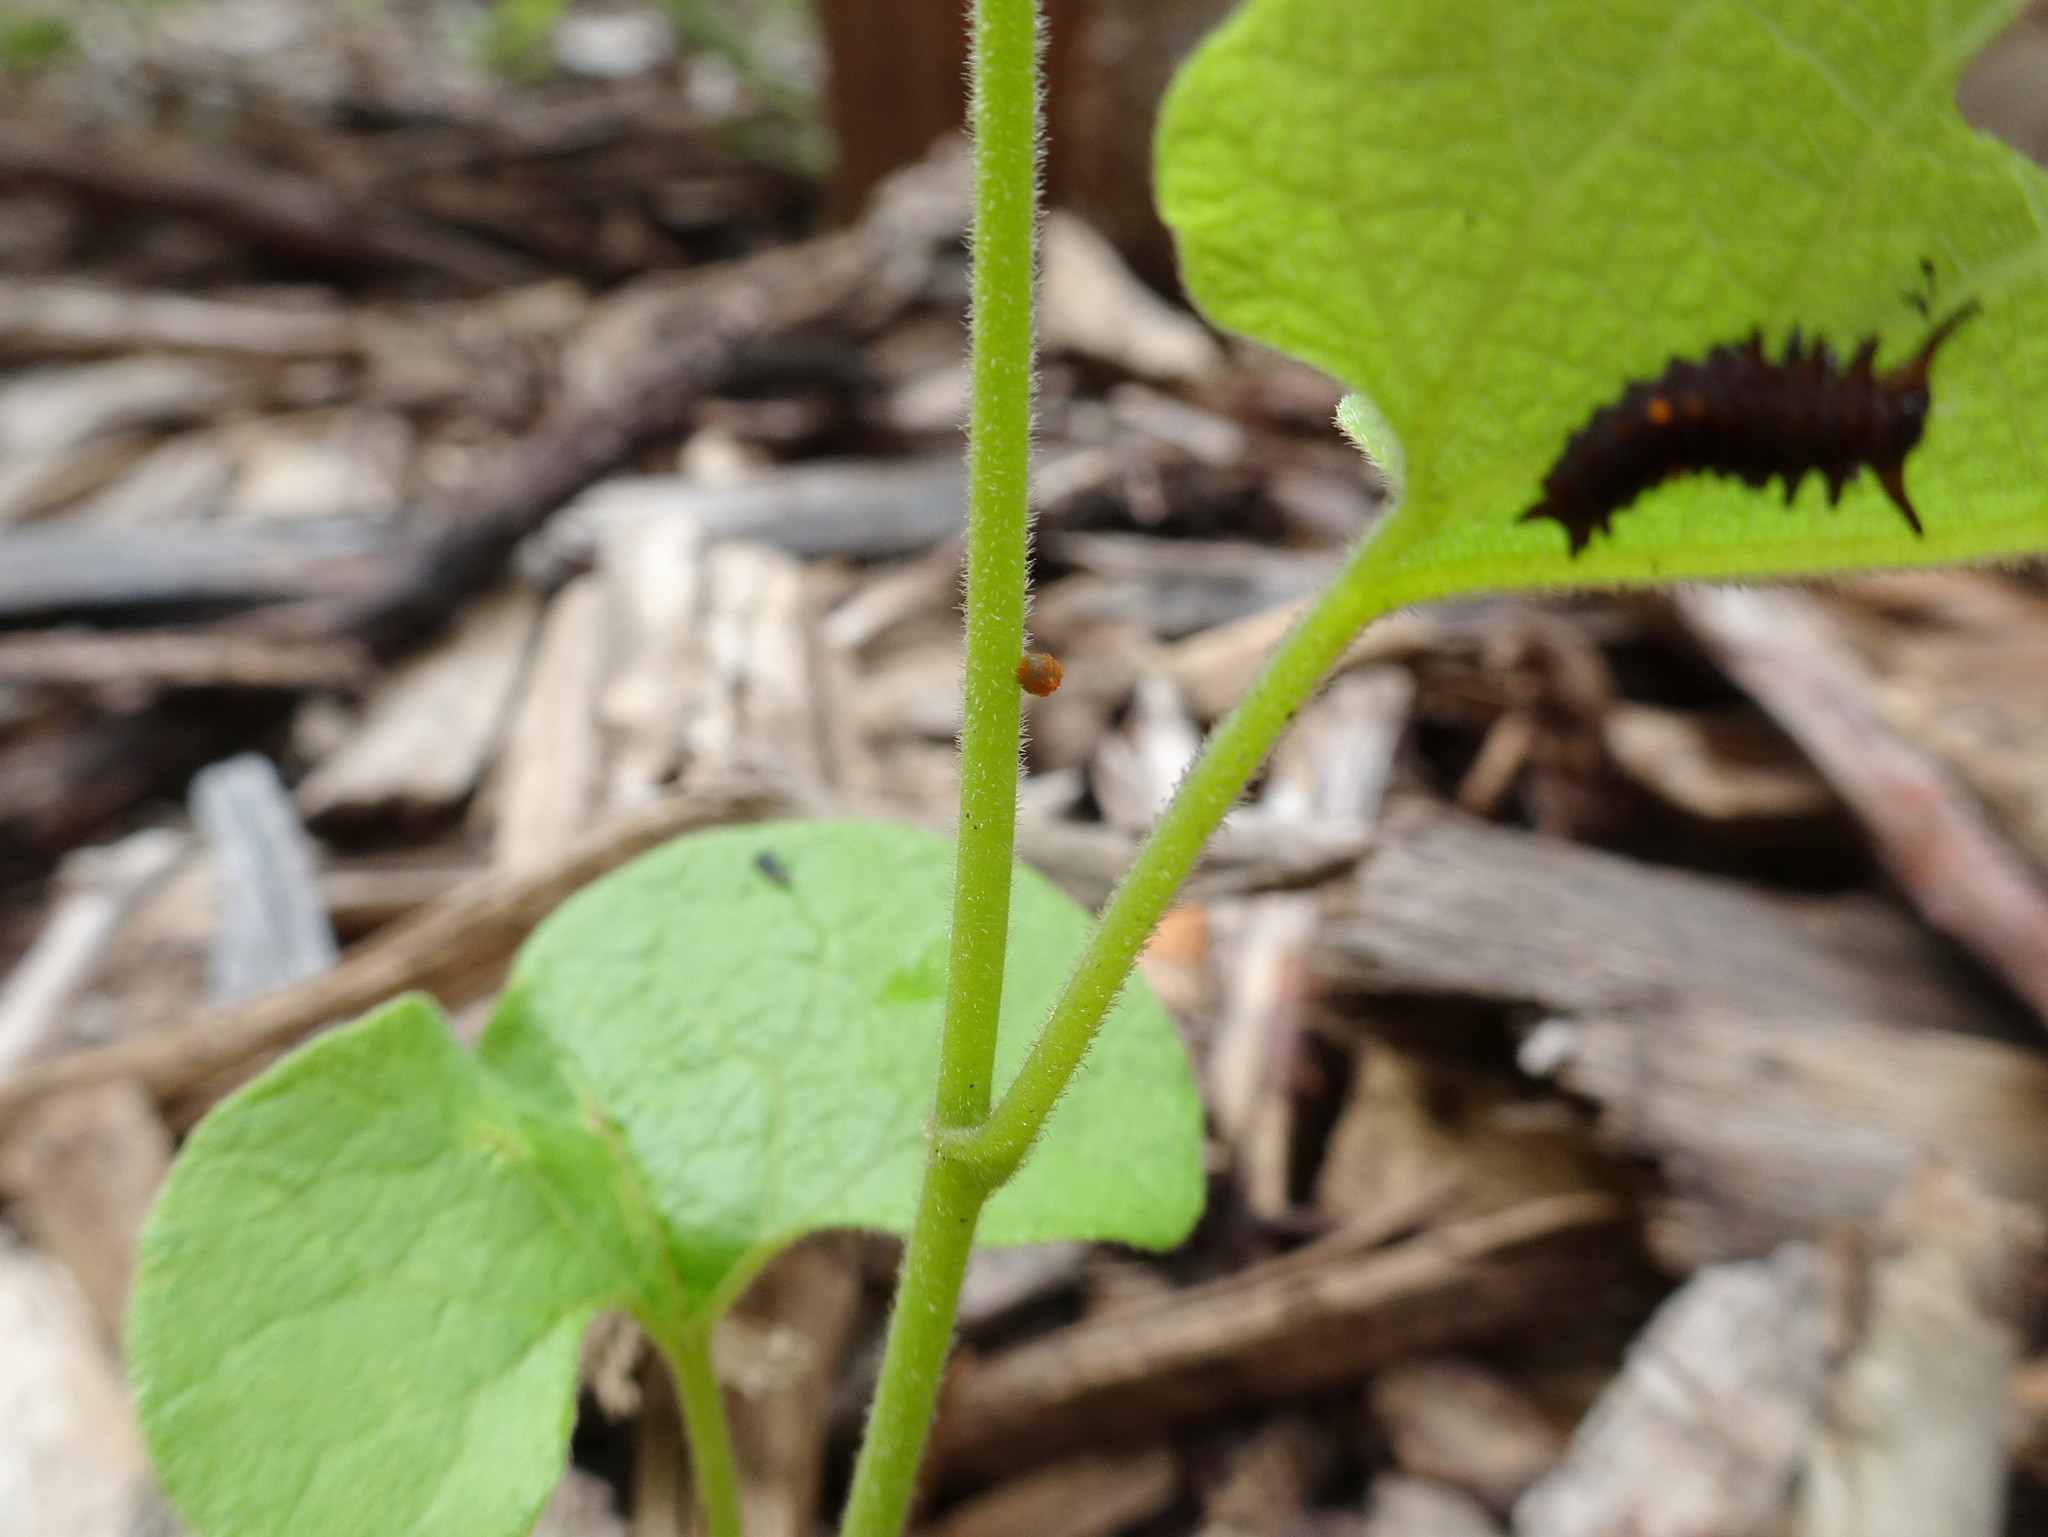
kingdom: Animalia
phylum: Arthropoda
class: Insecta
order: Lepidoptera
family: Papilionidae
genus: Battus
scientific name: Battus philenor
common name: Pipevine swallowtail
